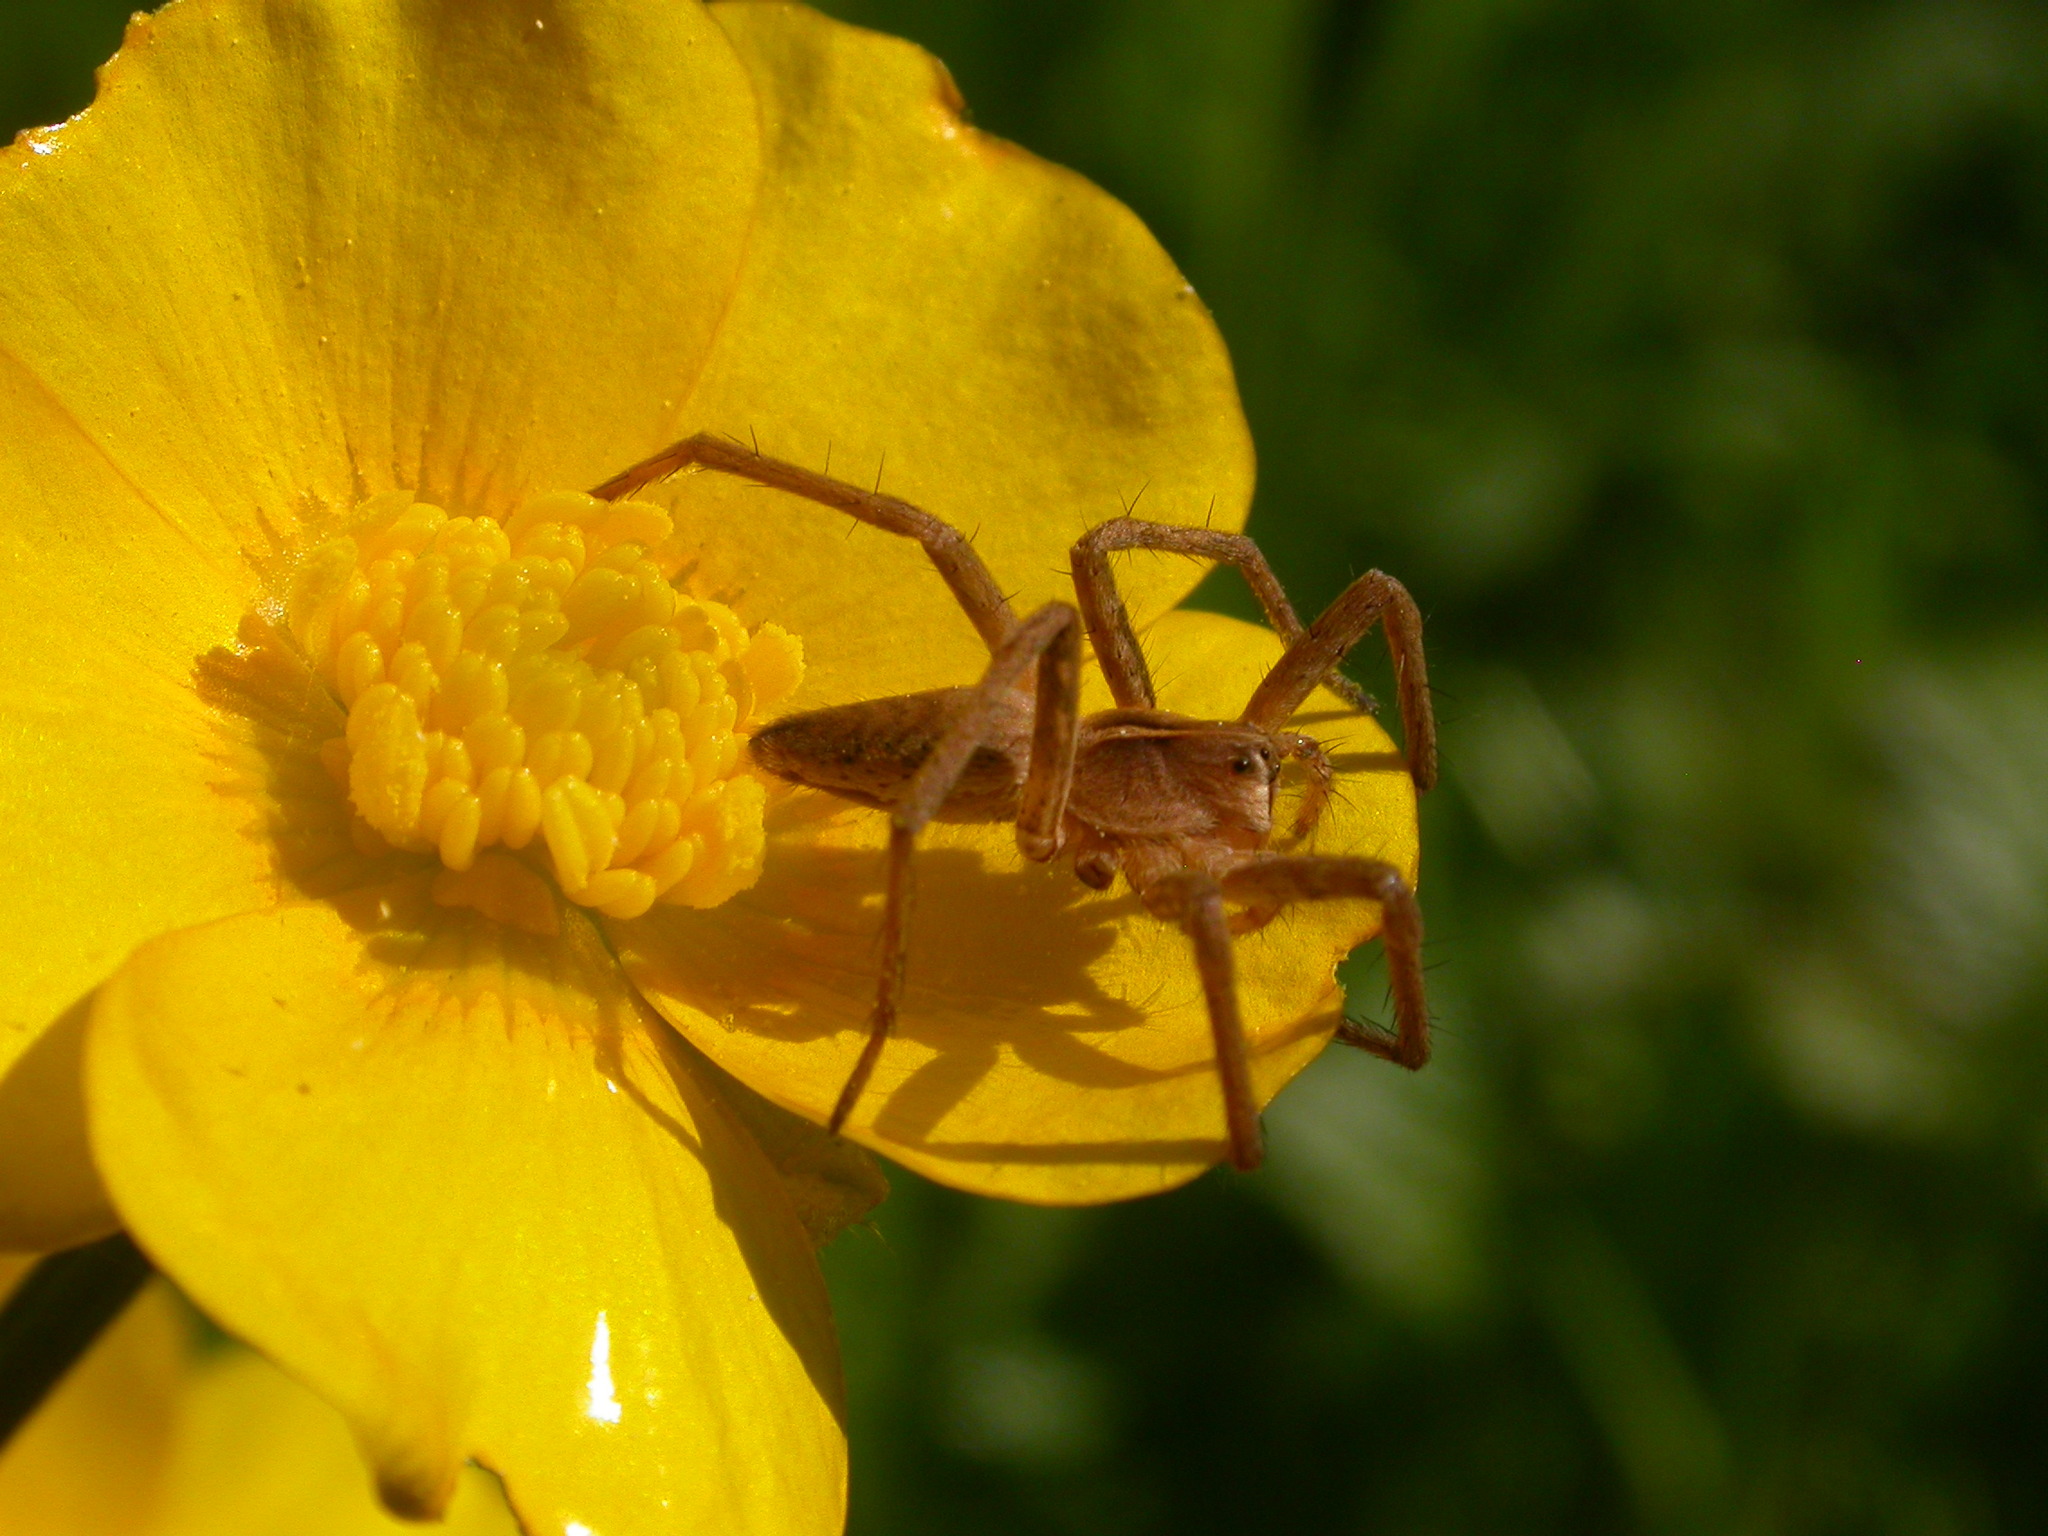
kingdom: Animalia
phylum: Arthropoda
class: Arachnida
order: Araneae
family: Pisauridae
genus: Pisaura
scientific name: Pisaura mirabilis
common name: Tent spider
